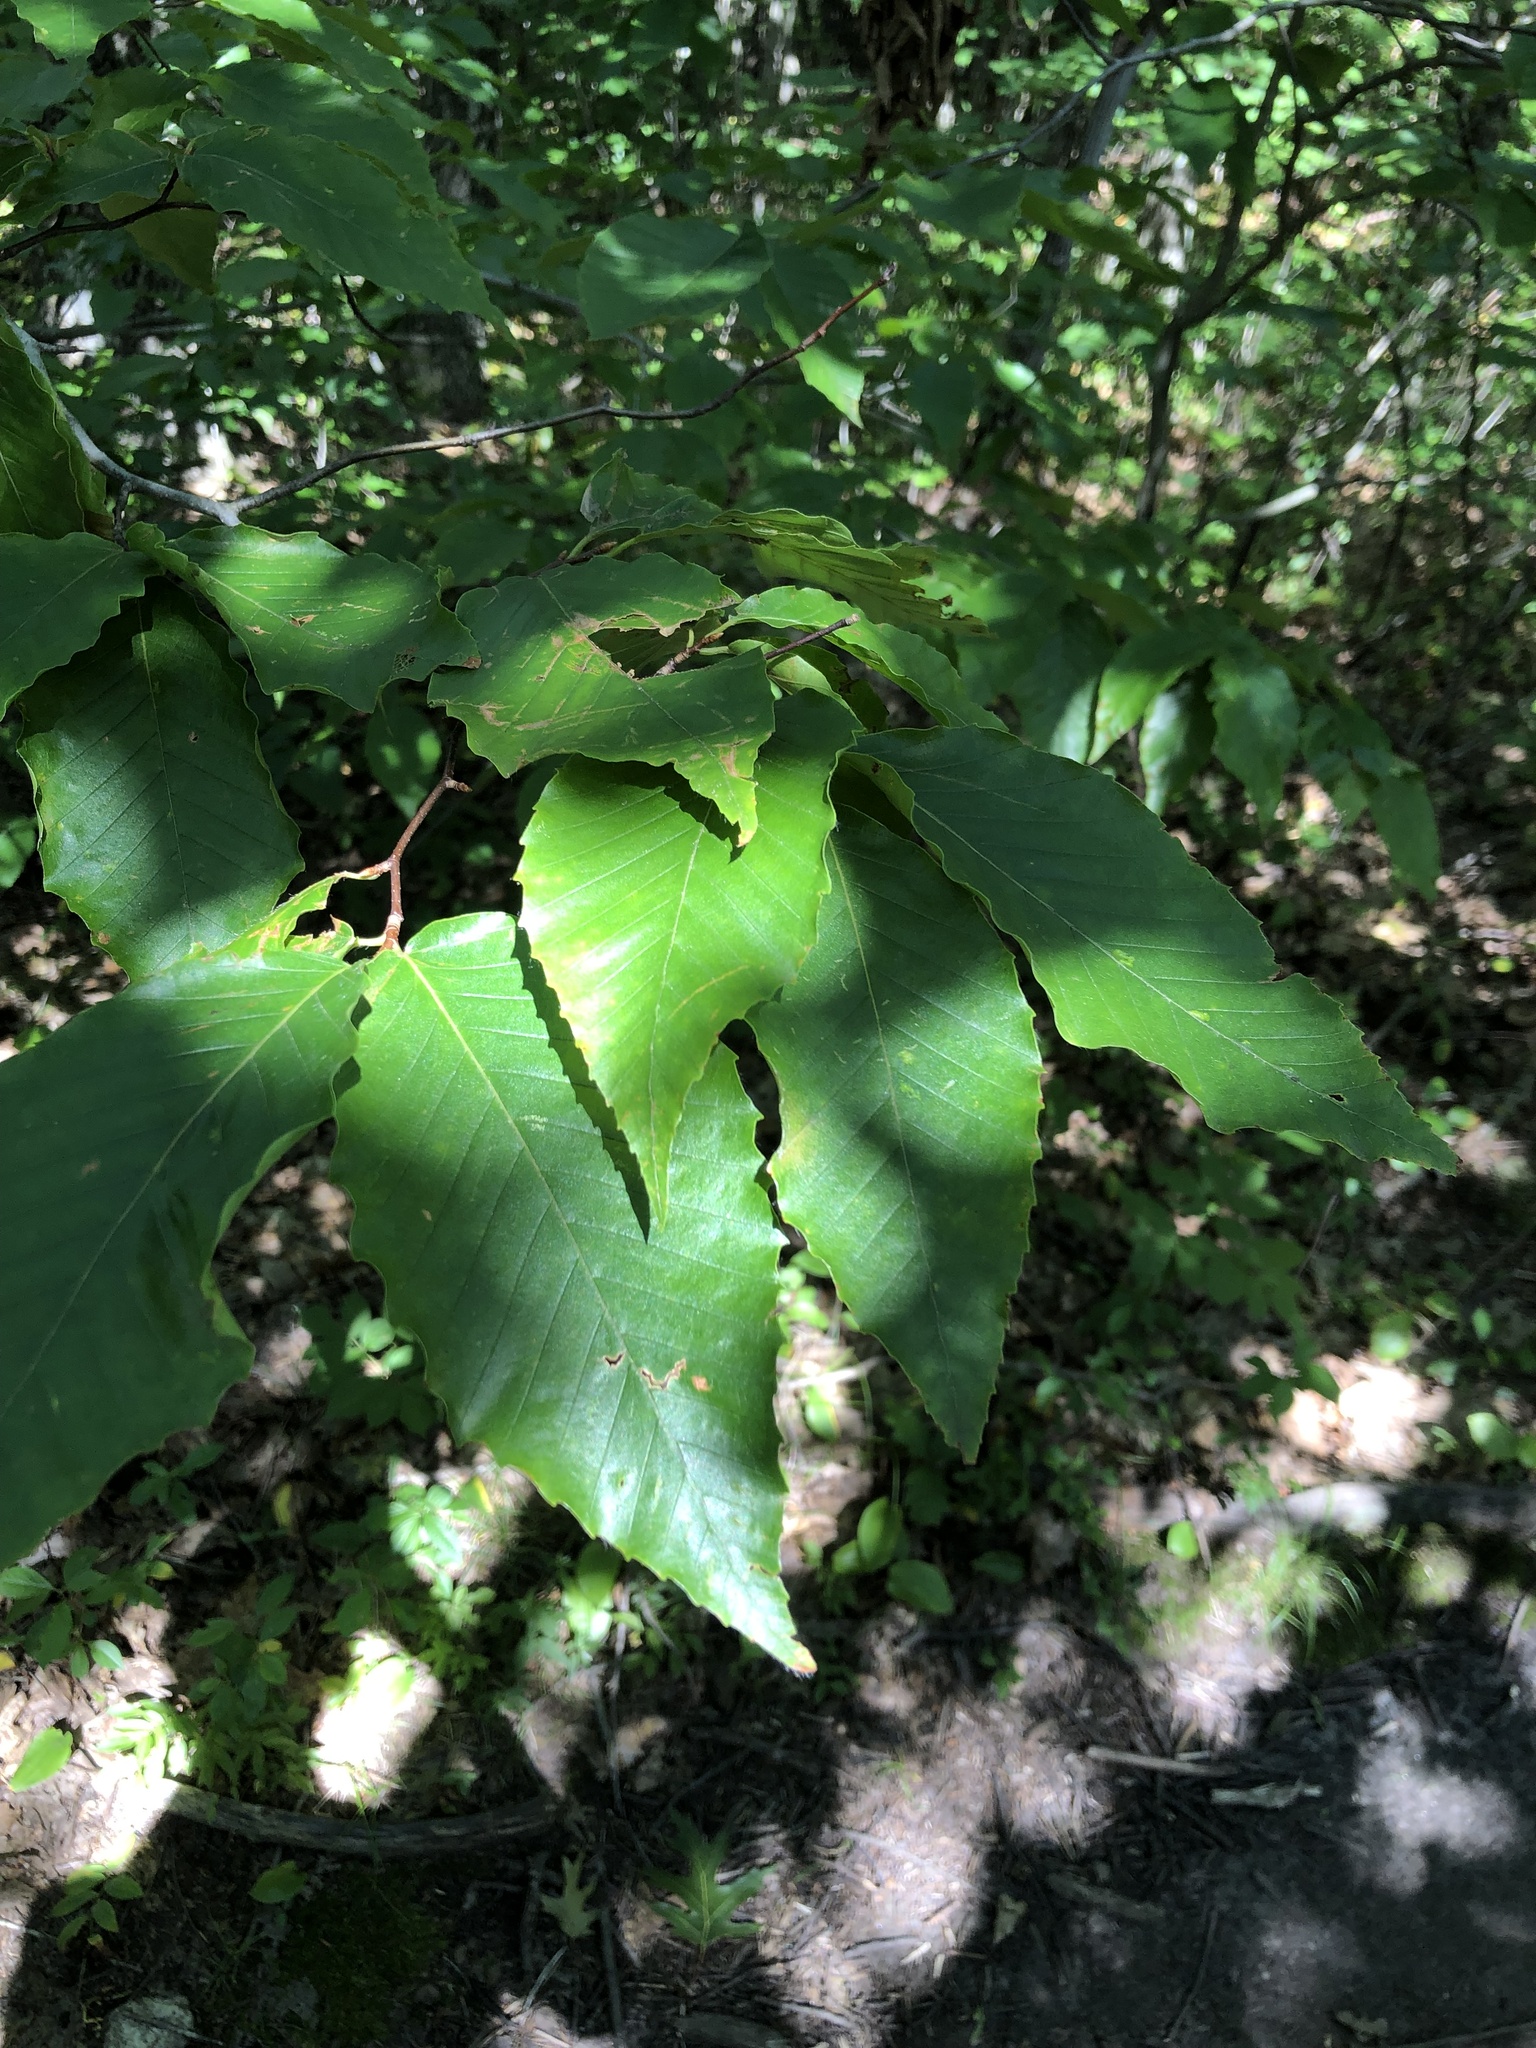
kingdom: Plantae
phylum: Tracheophyta
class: Magnoliopsida
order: Fagales
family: Fagaceae
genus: Fagus
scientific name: Fagus grandifolia
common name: American beech
